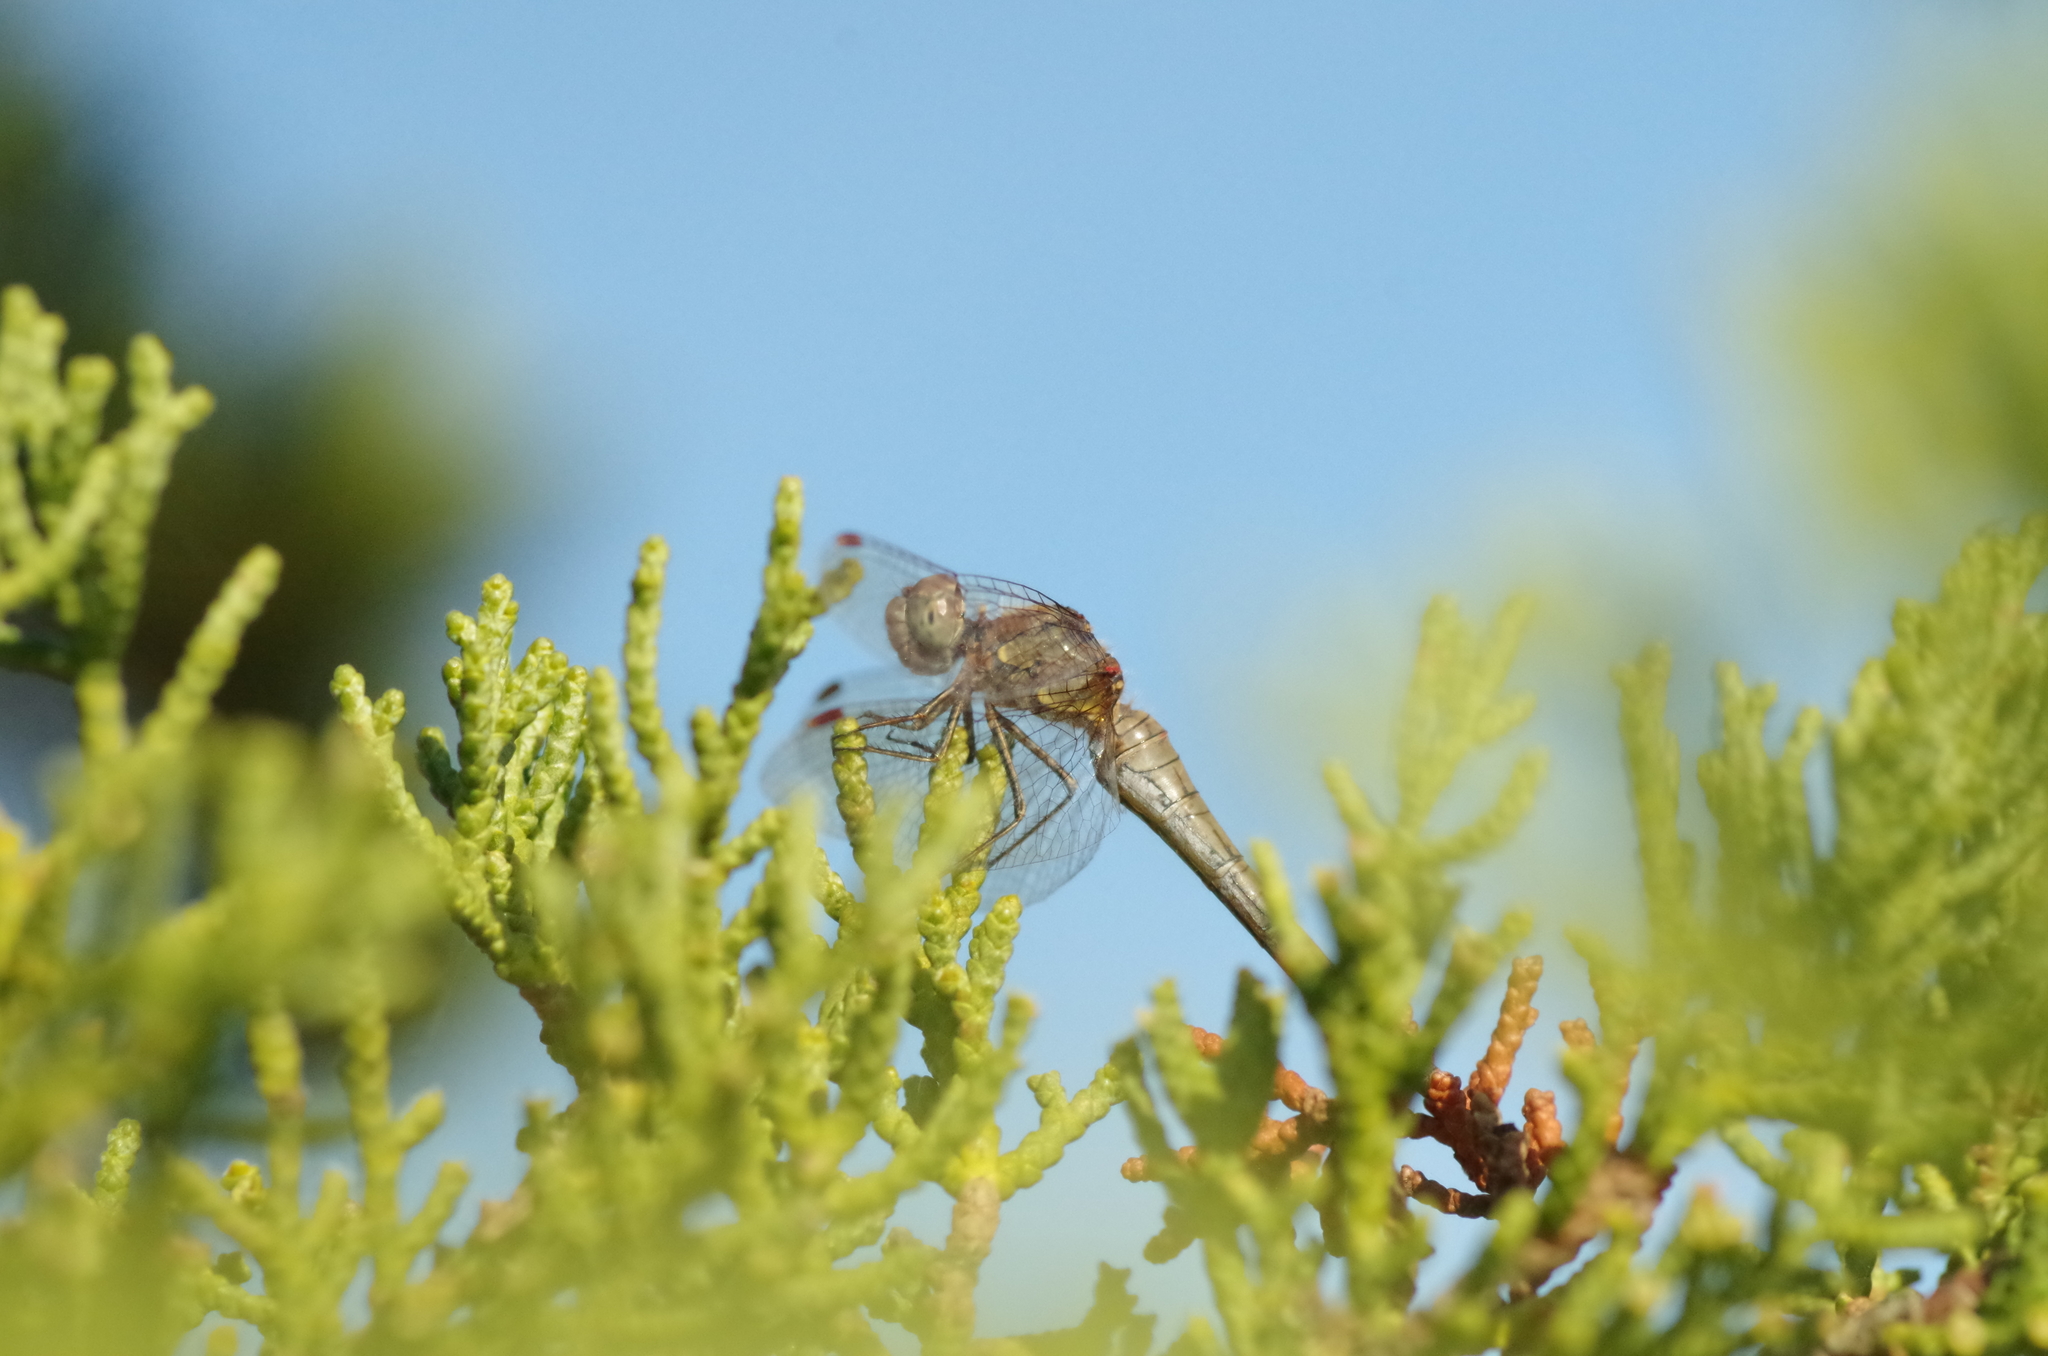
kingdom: Animalia
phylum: Arthropoda
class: Insecta
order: Odonata
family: Libellulidae
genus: Sympetrum
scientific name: Sympetrum striolatum
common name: Common darter
